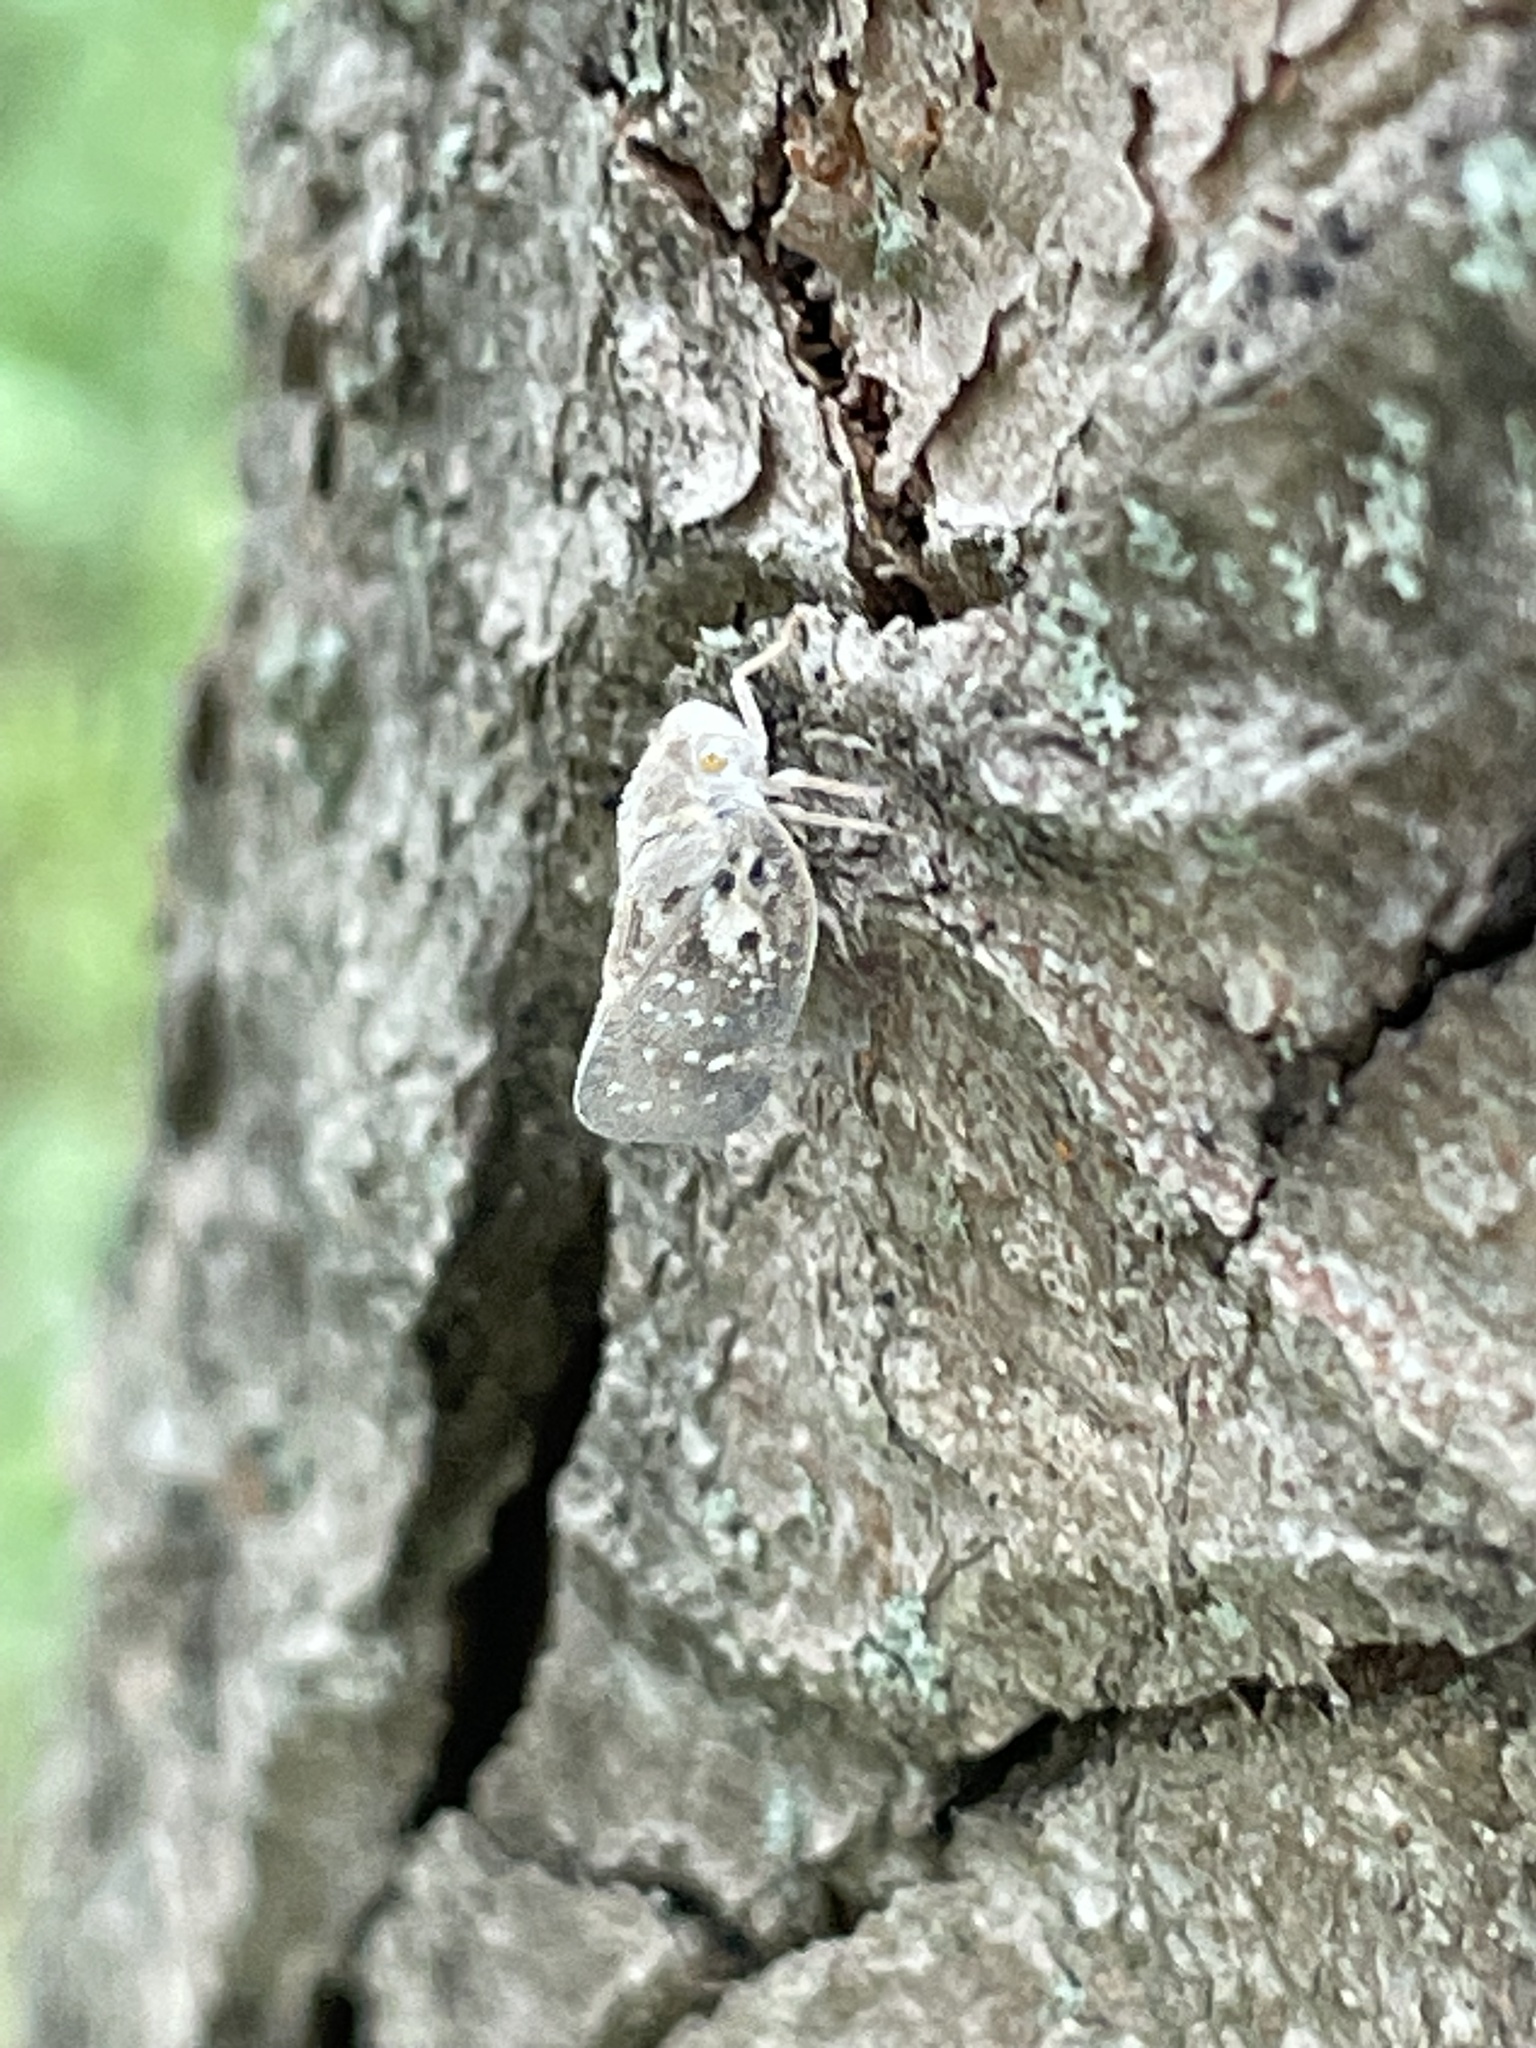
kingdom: Animalia
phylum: Arthropoda
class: Insecta
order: Hemiptera
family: Flatidae
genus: Metcalfa
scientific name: Metcalfa pruinosa
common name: Citrus flatid planthopper
